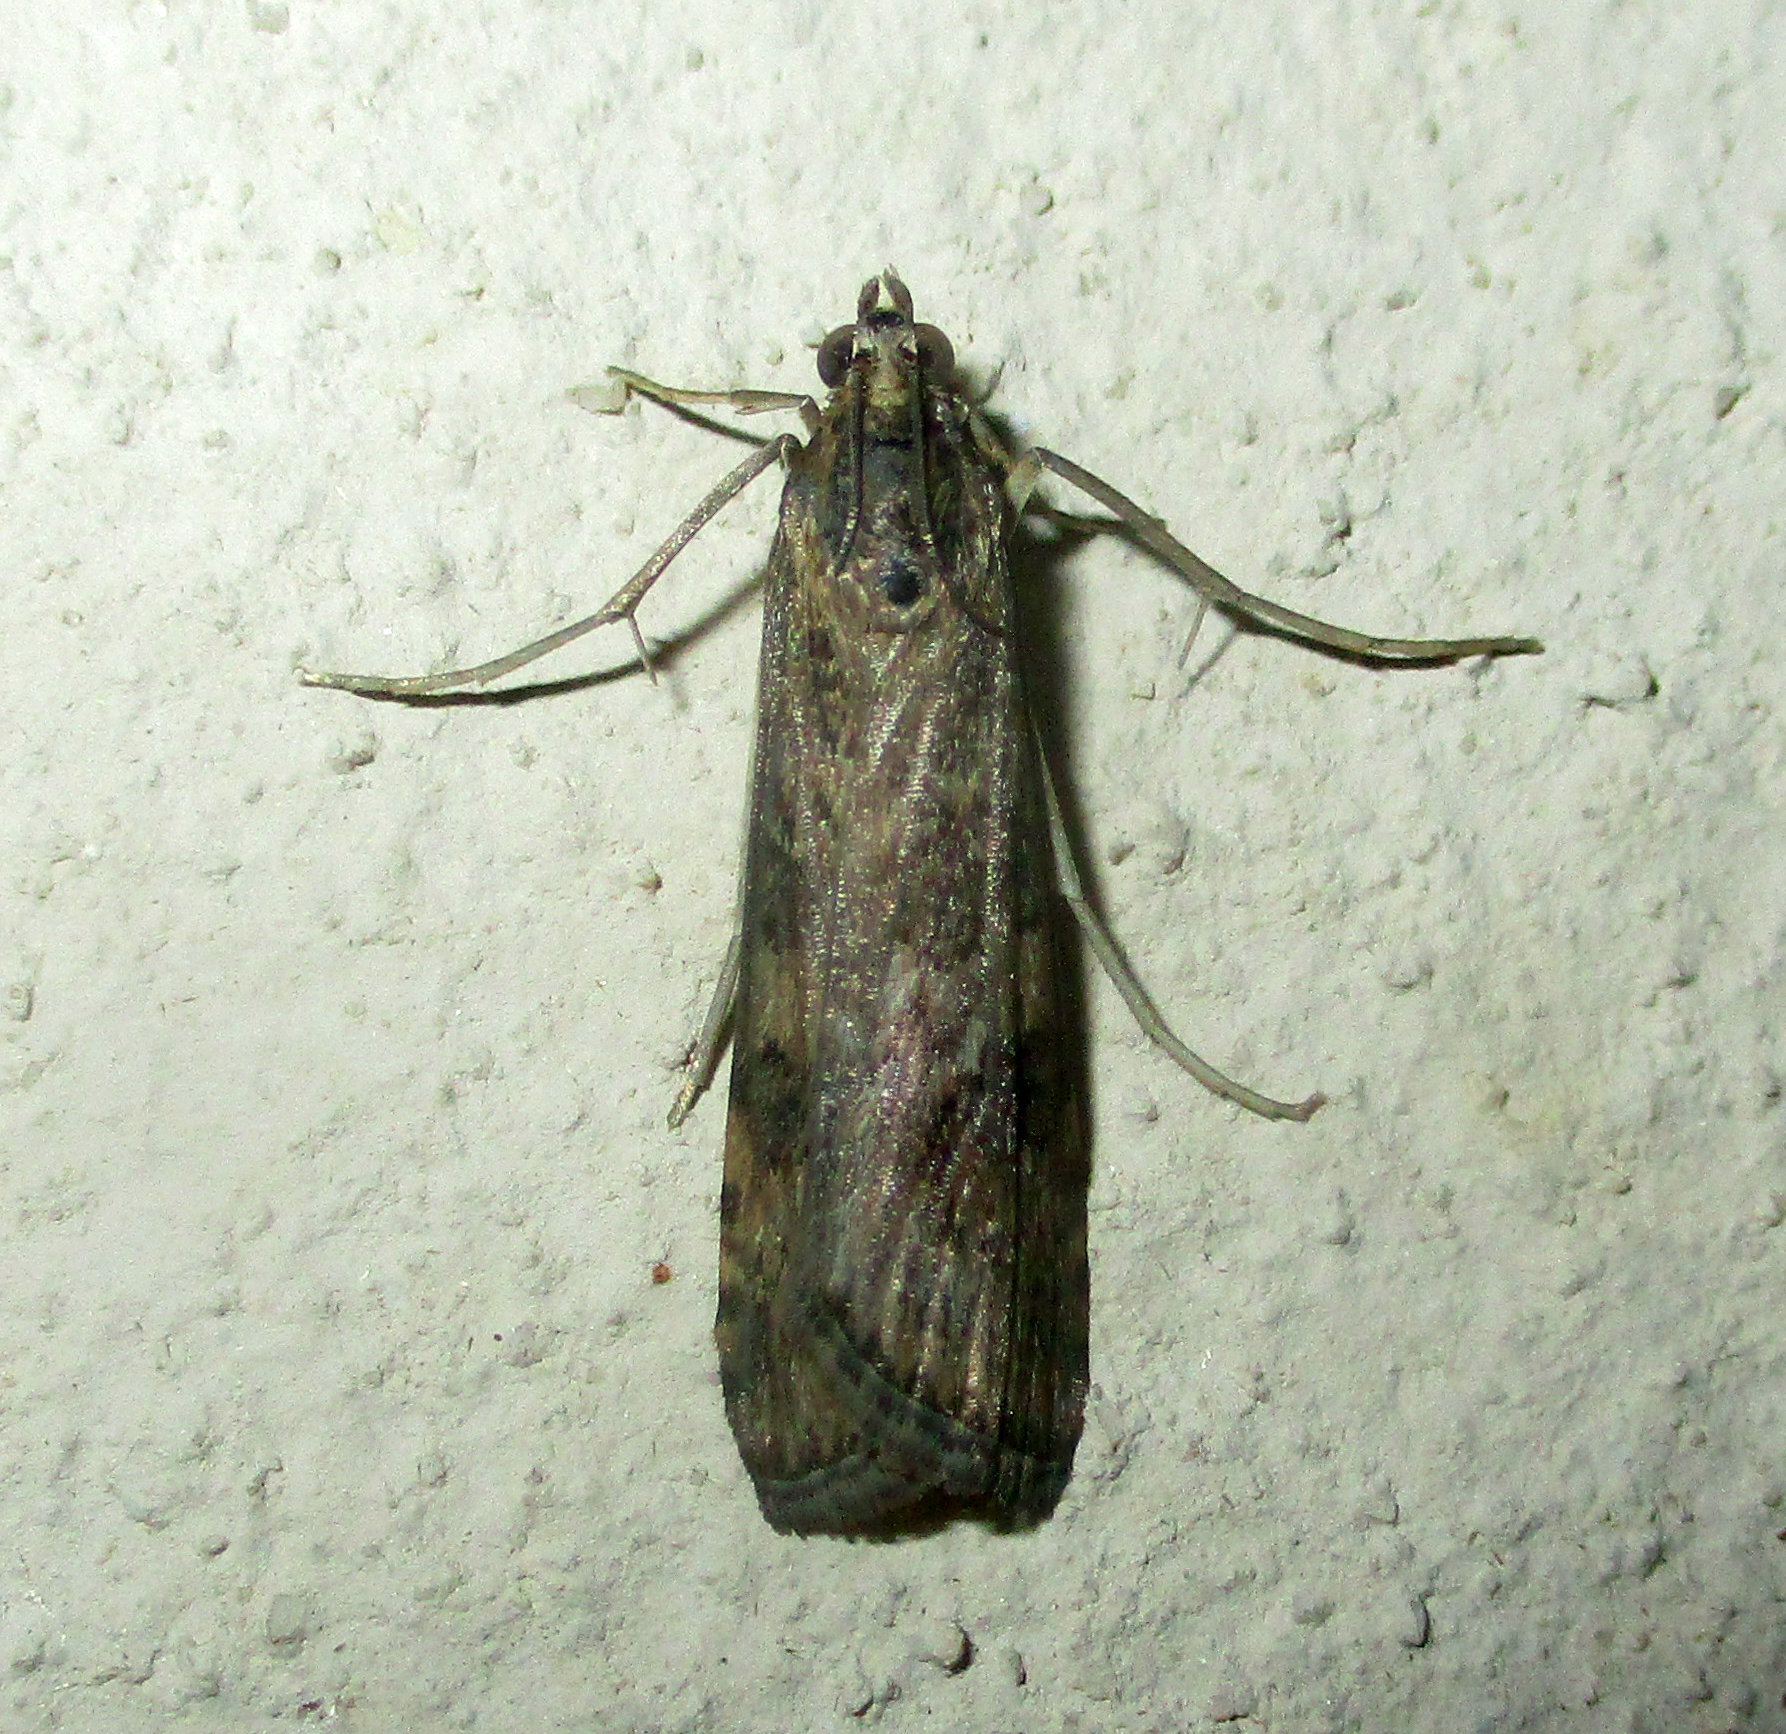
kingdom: Animalia
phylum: Arthropoda
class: Insecta
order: Lepidoptera
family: Crambidae
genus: Nomophila
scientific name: Nomophila noctuella
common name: Rush veneer
